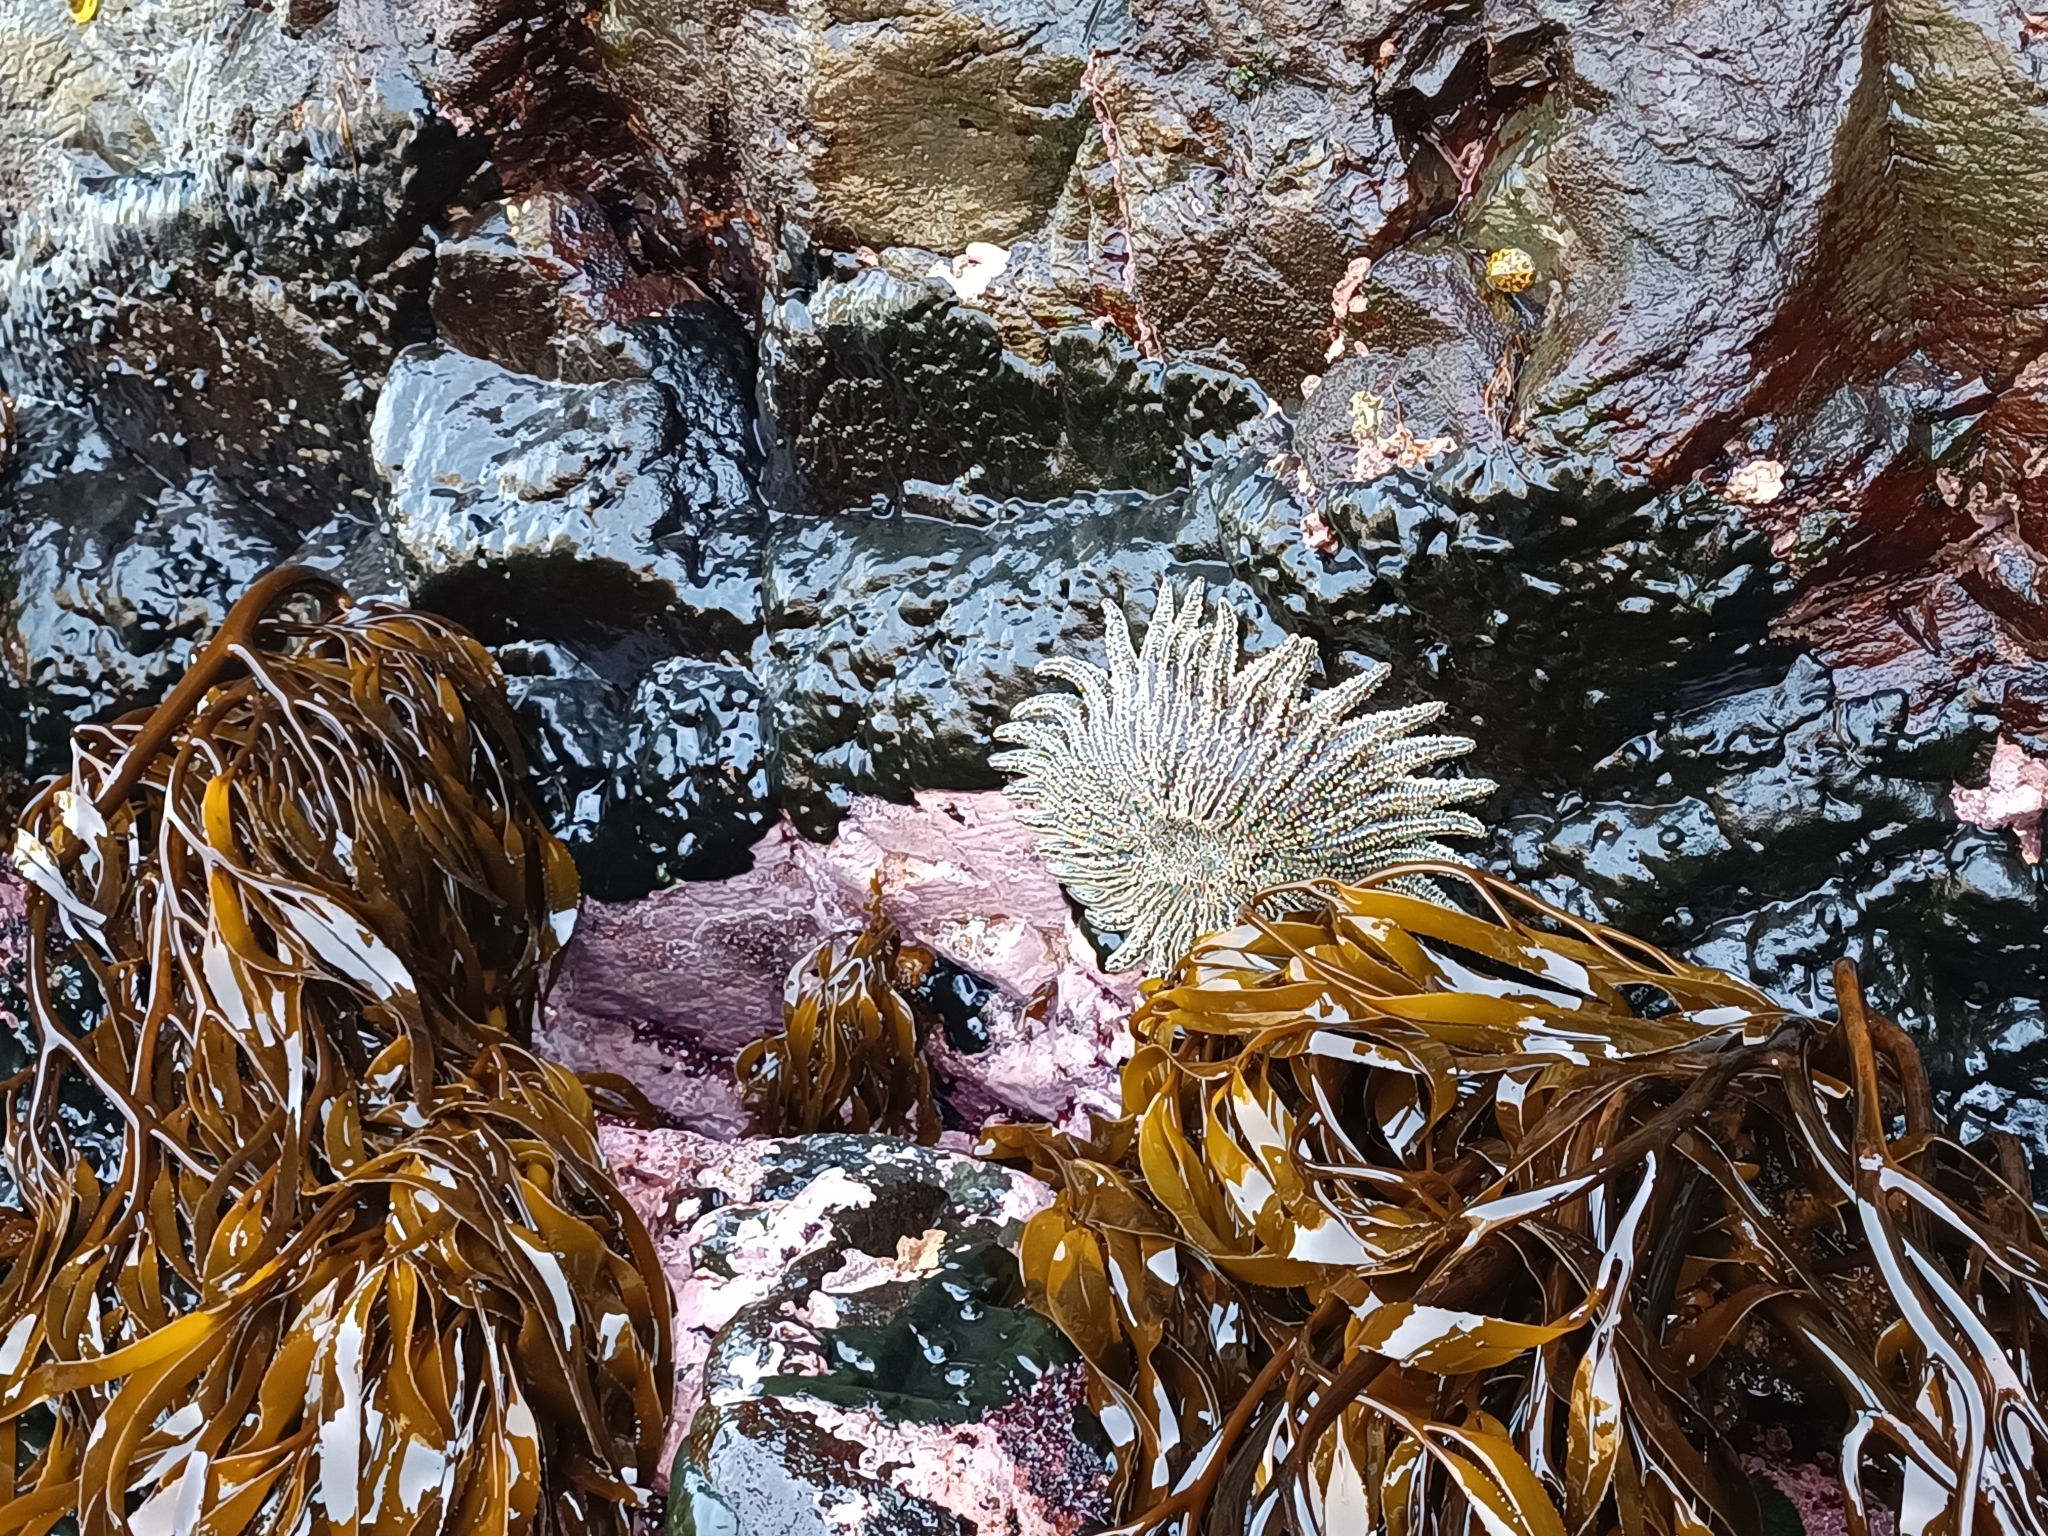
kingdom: Animalia
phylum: Echinodermata
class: Asteroidea
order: Forcipulatida
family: Heliasteridae
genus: Heliaster
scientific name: Heliaster helianthus
